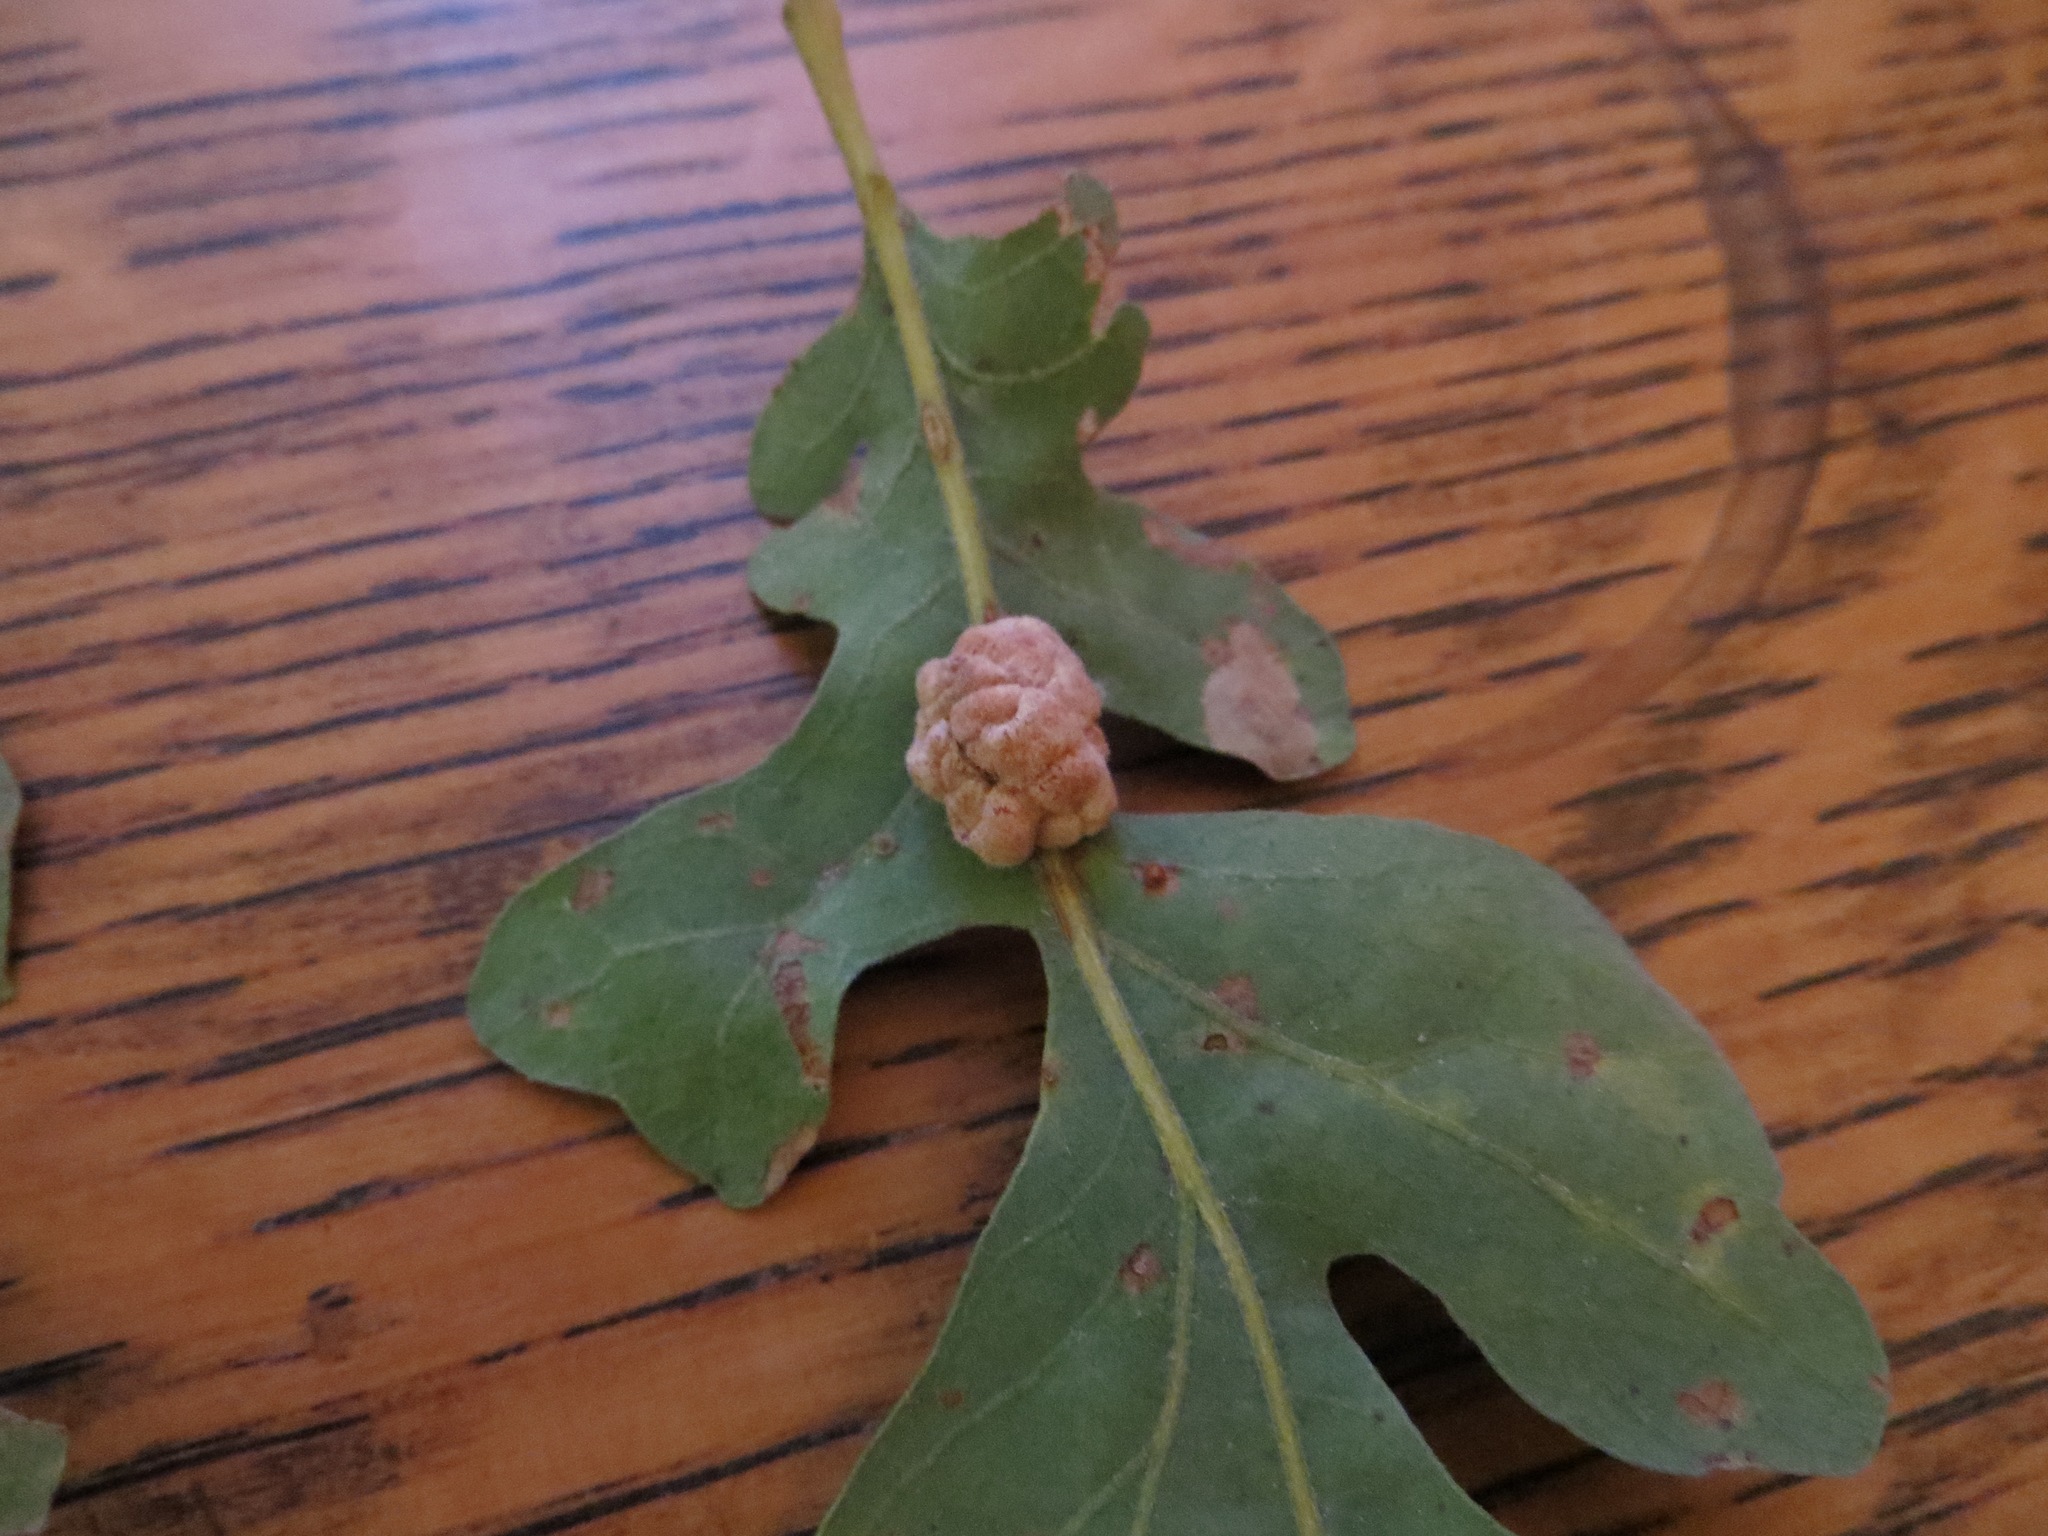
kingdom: Animalia
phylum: Arthropoda
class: Insecta
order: Hymenoptera
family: Cynipidae
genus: Andricus
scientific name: Andricus
